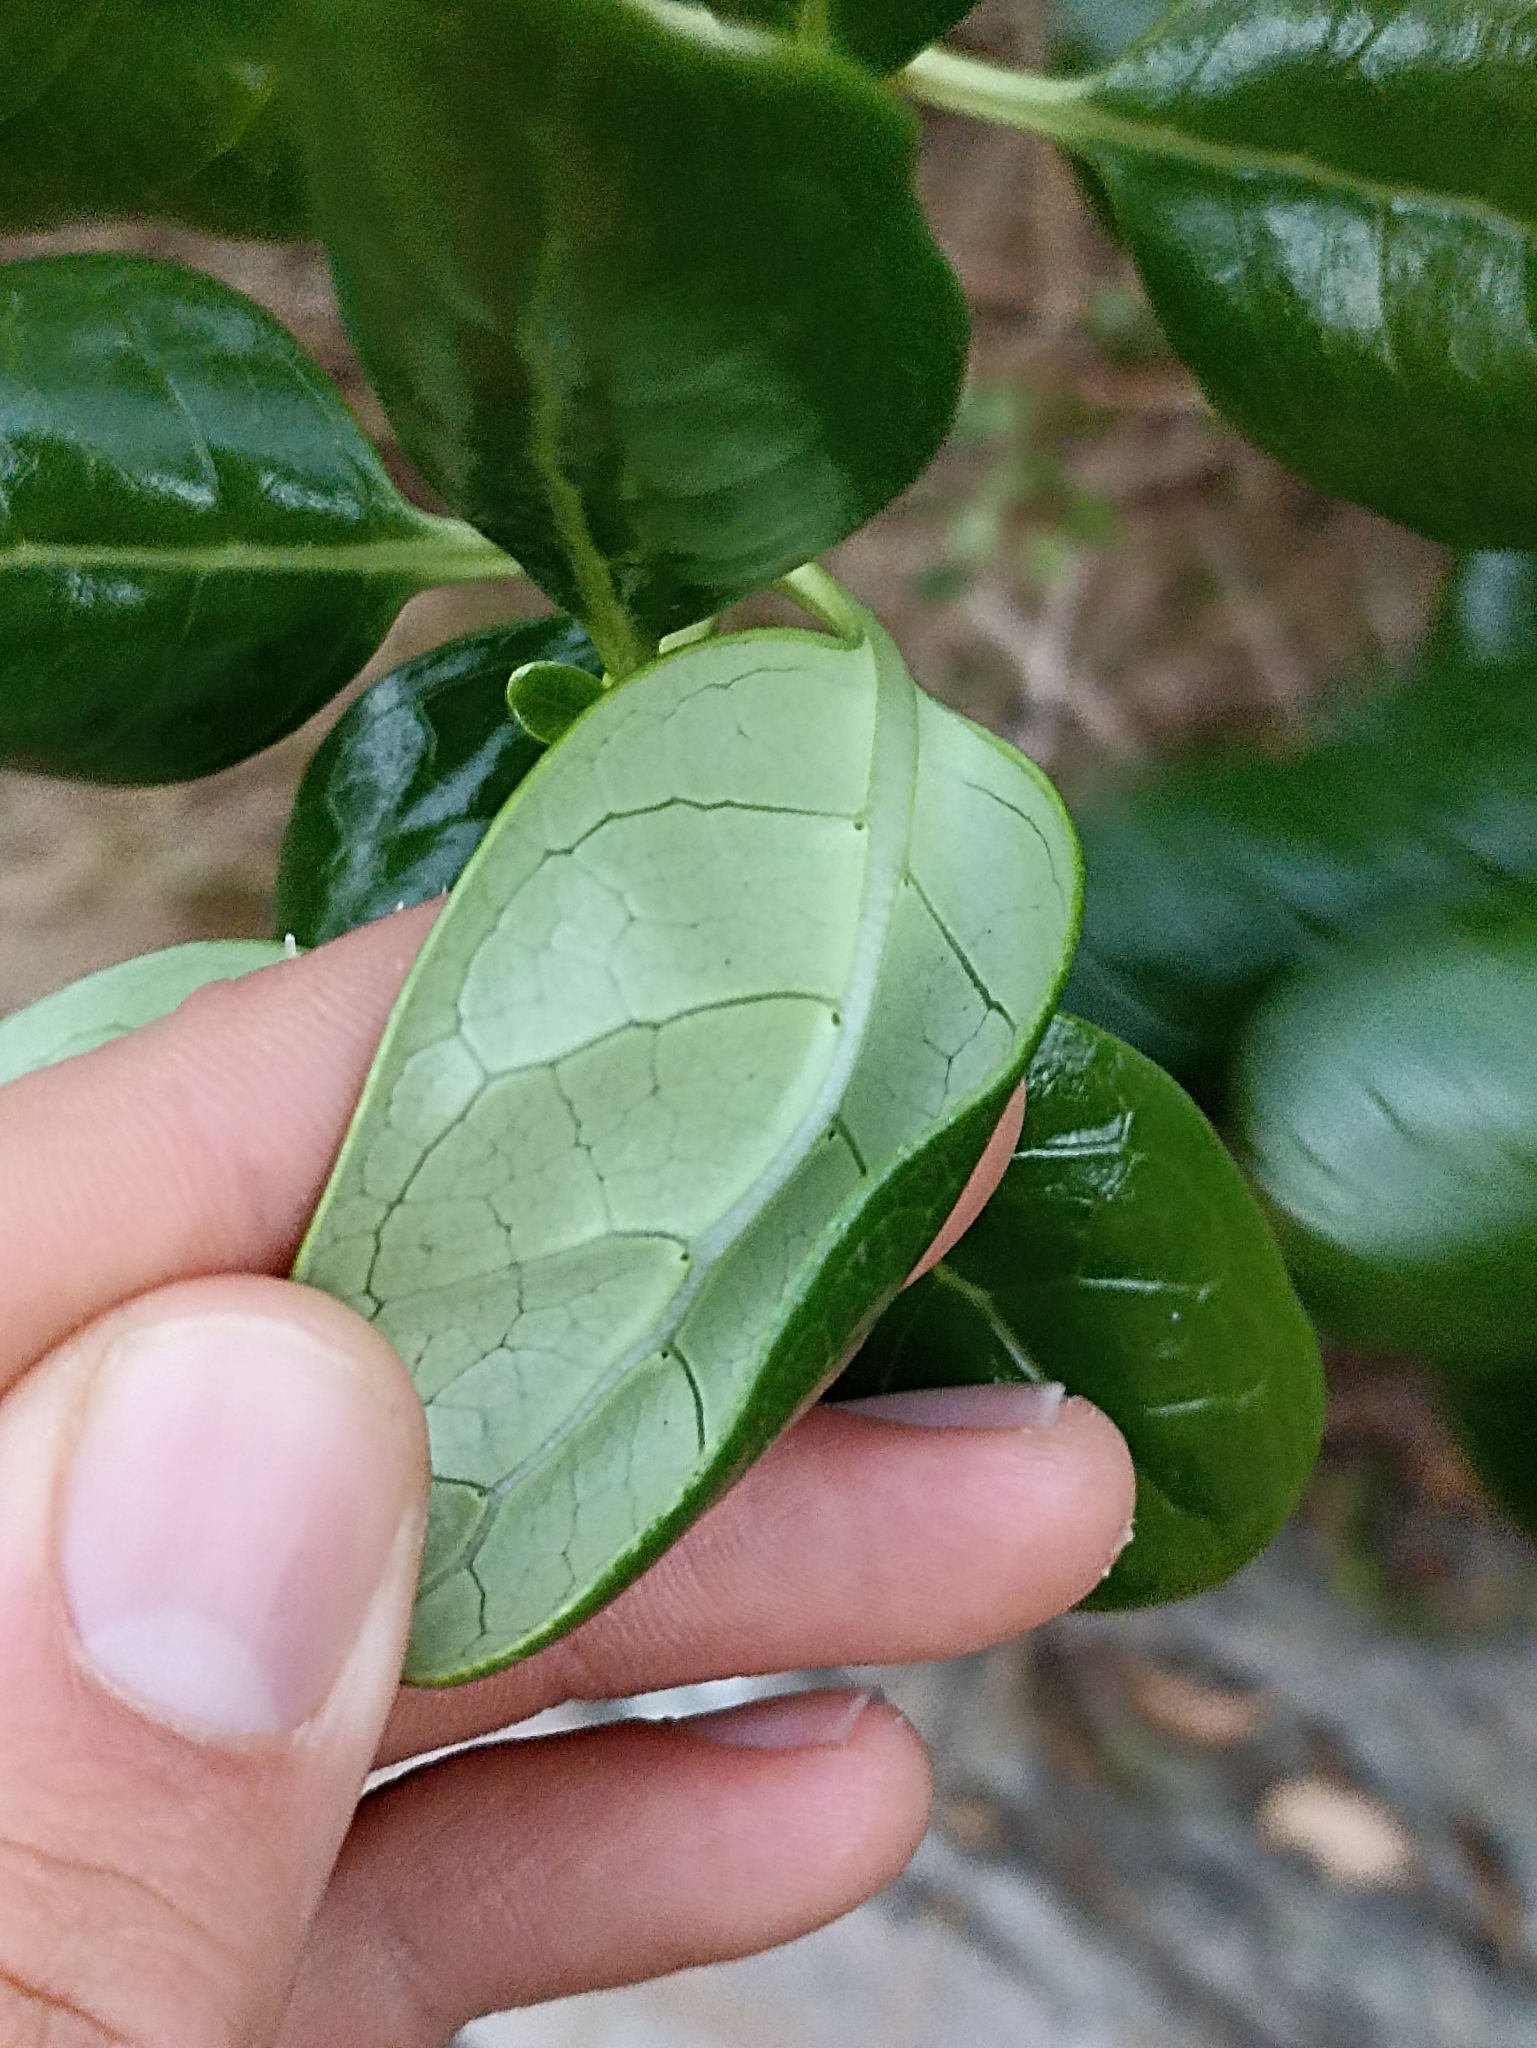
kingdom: Plantae
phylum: Tracheophyta
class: Magnoliopsida
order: Gentianales
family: Rubiaceae
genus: Coprosma
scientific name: Coprosma repens
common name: Tree bedstraw
